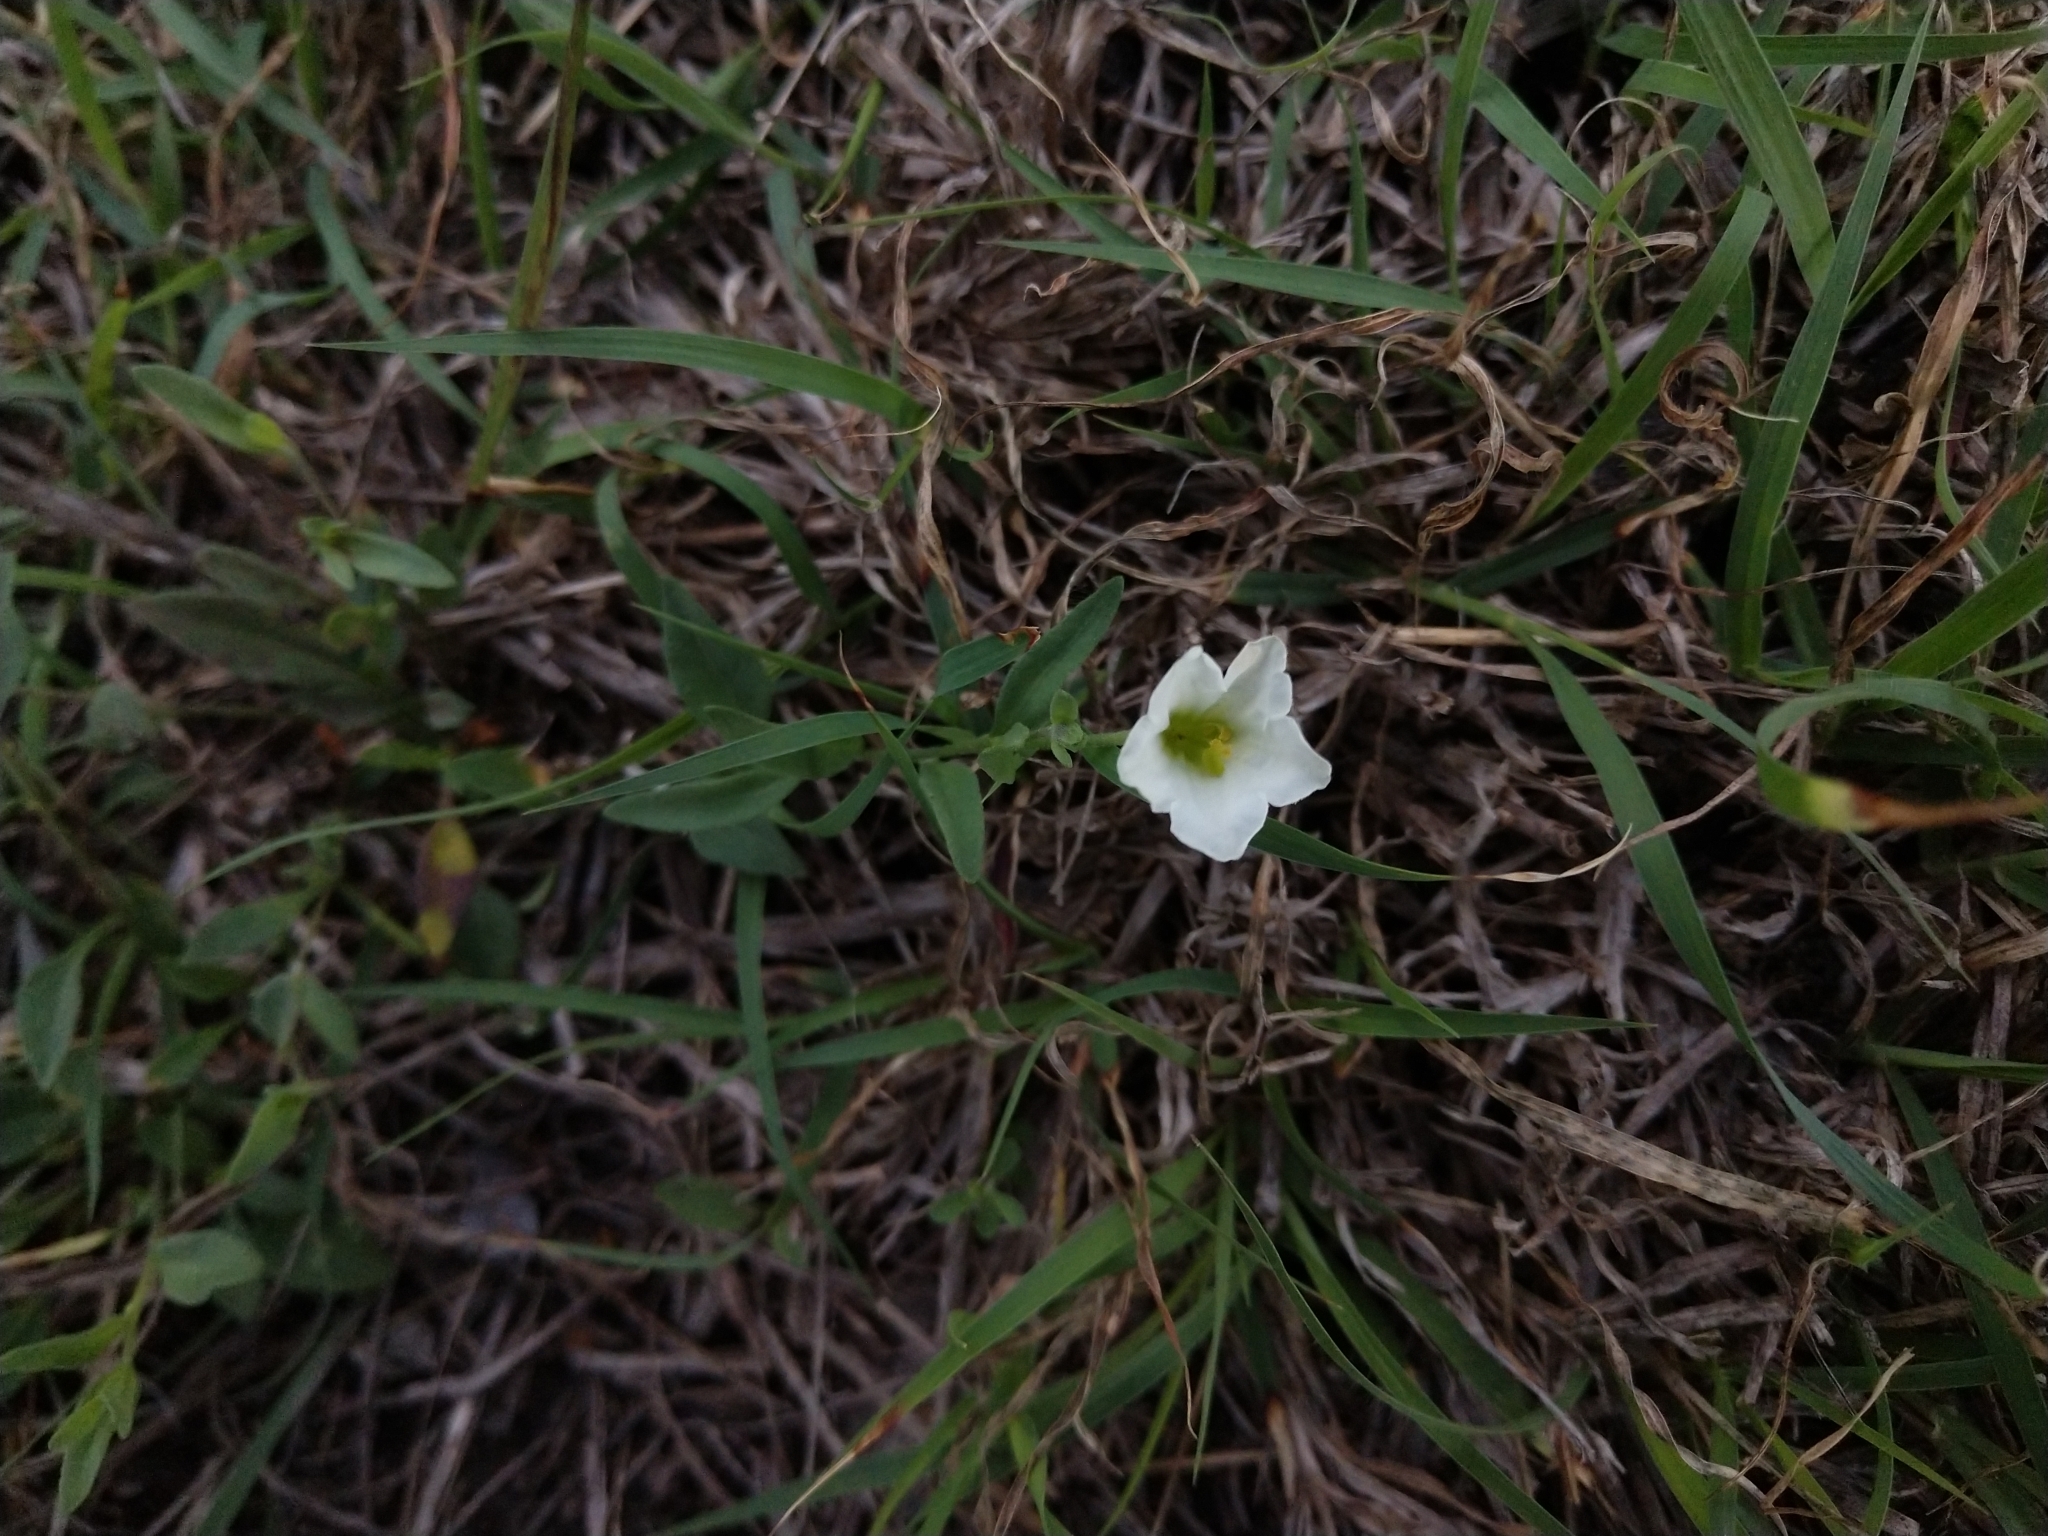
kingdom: Plantae
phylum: Tracheophyta
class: Magnoliopsida
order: Solanales
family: Solanaceae
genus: Salpiglossis
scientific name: Salpiglossis erecta
